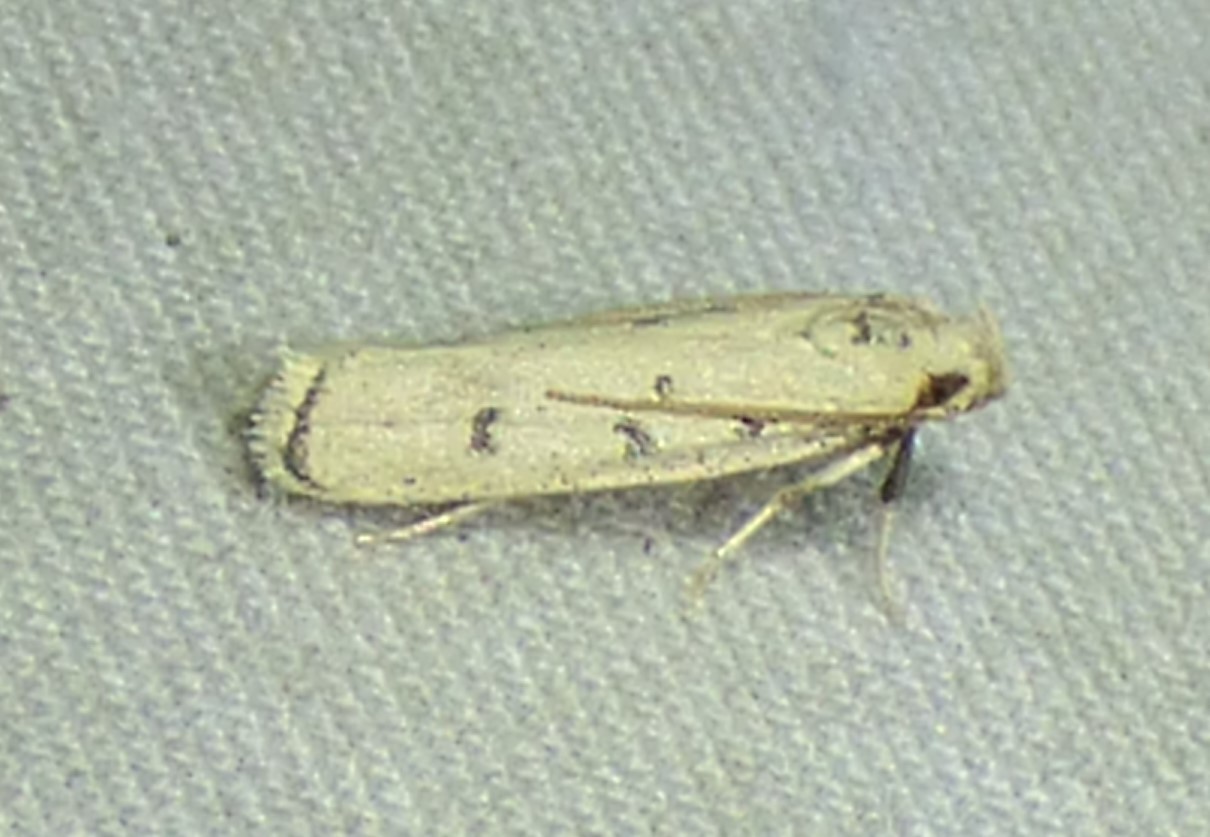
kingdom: Animalia
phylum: Arthropoda
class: Insecta
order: Lepidoptera
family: Autostichidae
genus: Glyphidocera
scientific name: Glyphidocera lactiflosella
